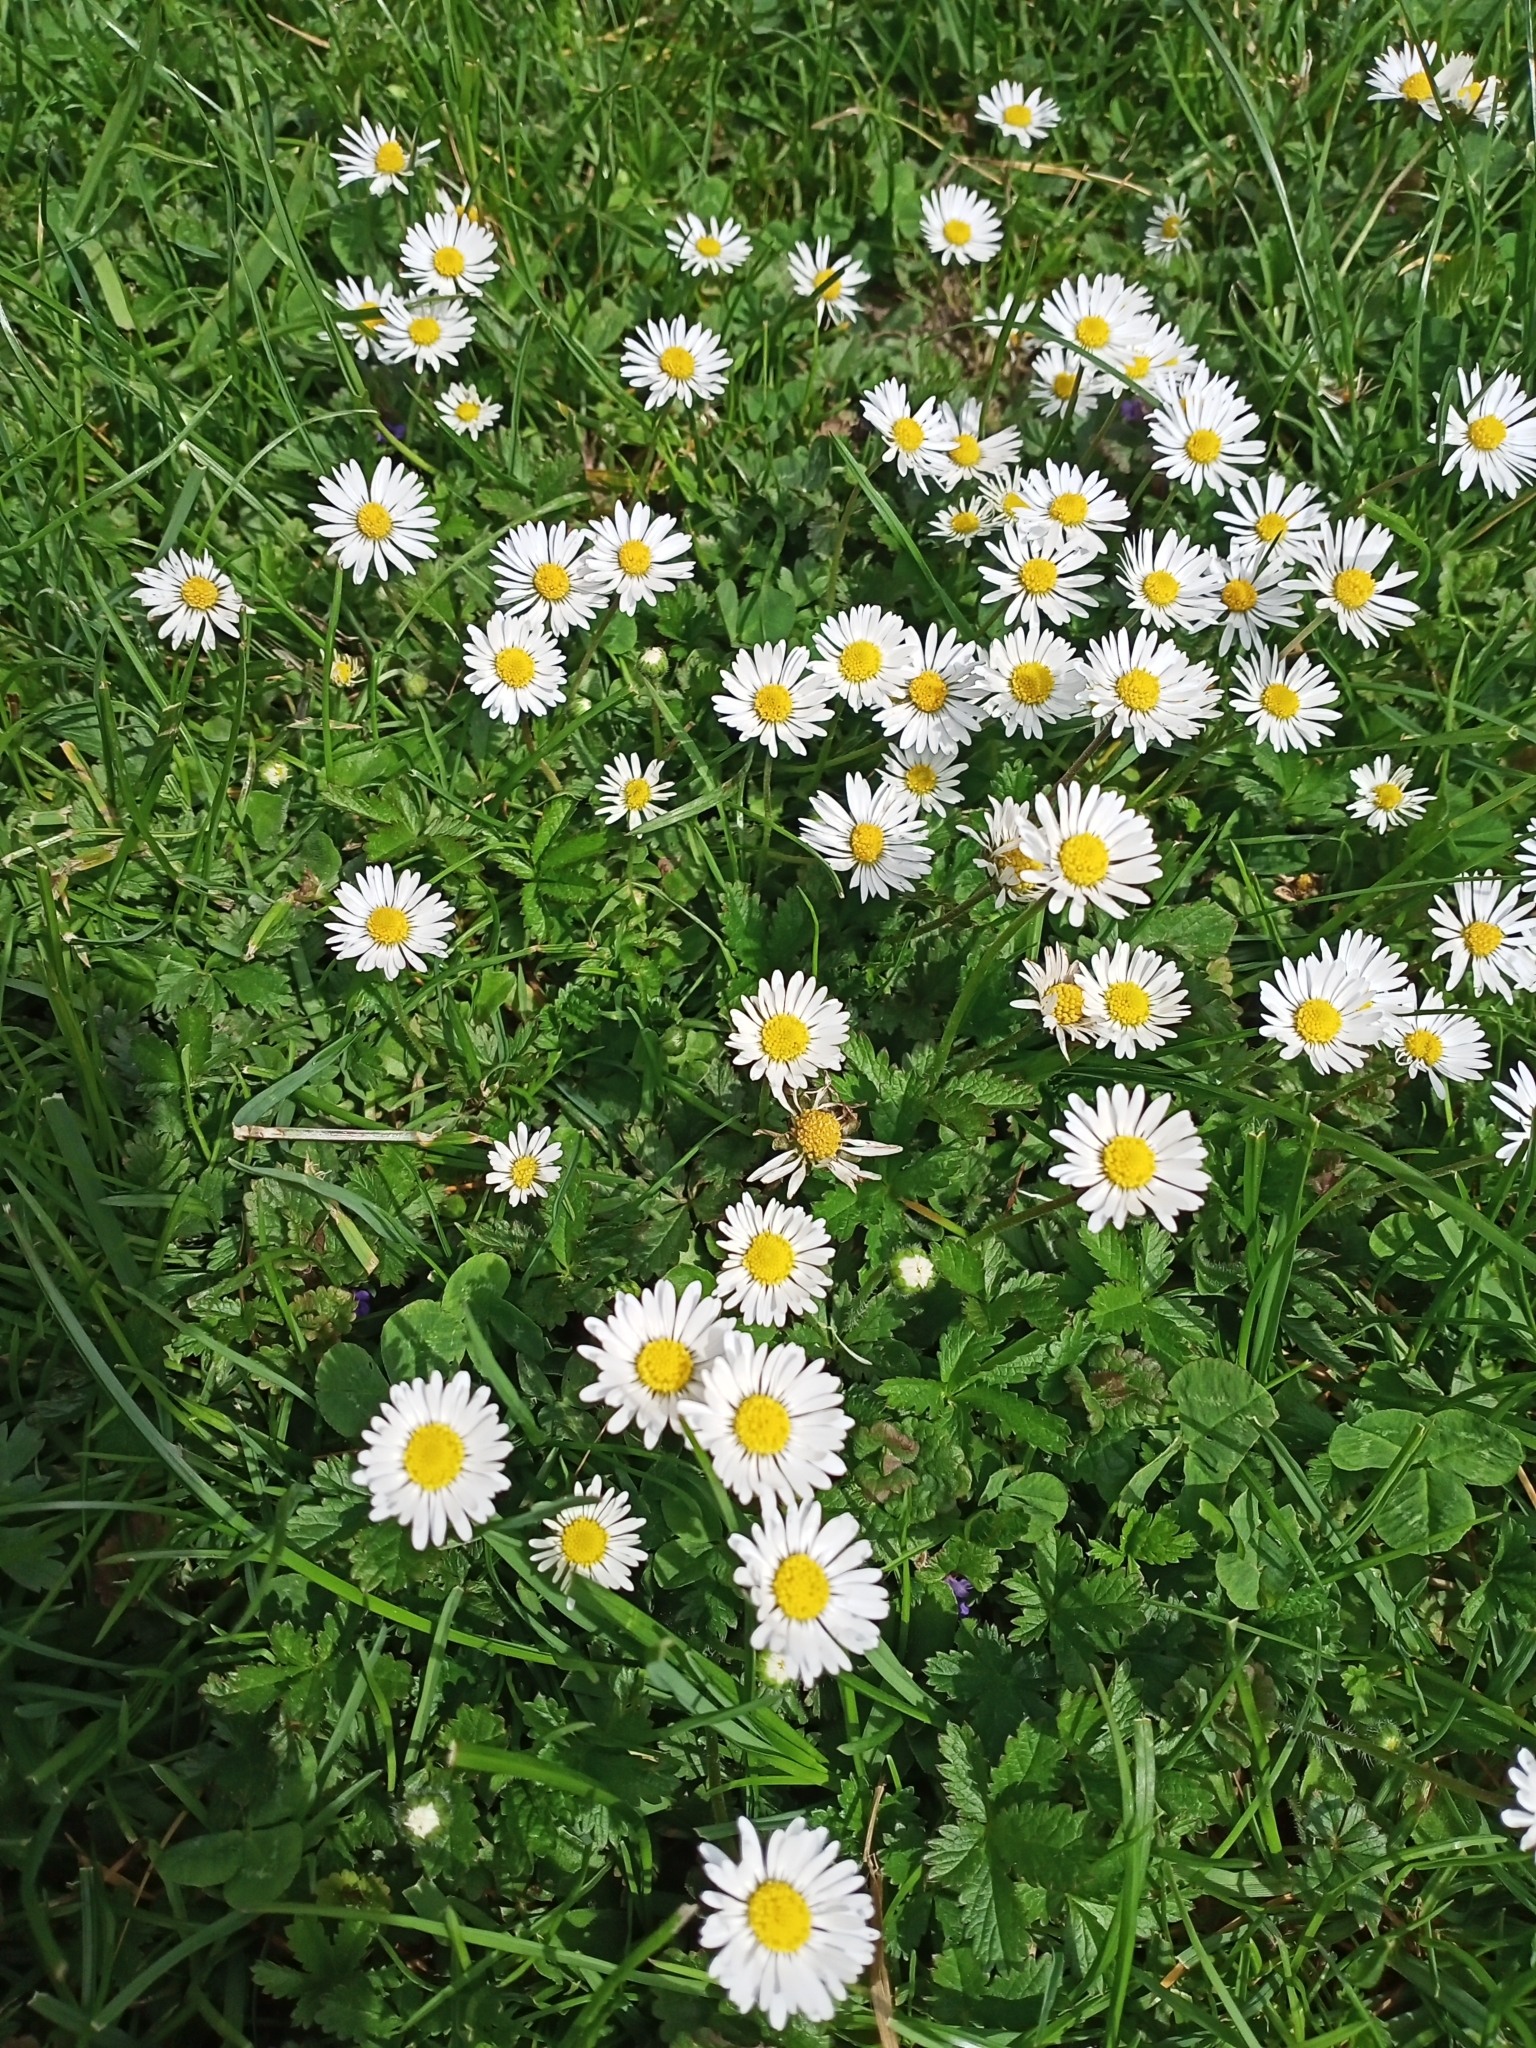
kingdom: Plantae
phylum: Tracheophyta
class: Magnoliopsida
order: Asterales
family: Asteraceae
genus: Bellis
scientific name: Bellis perennis
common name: Lawndaisy
